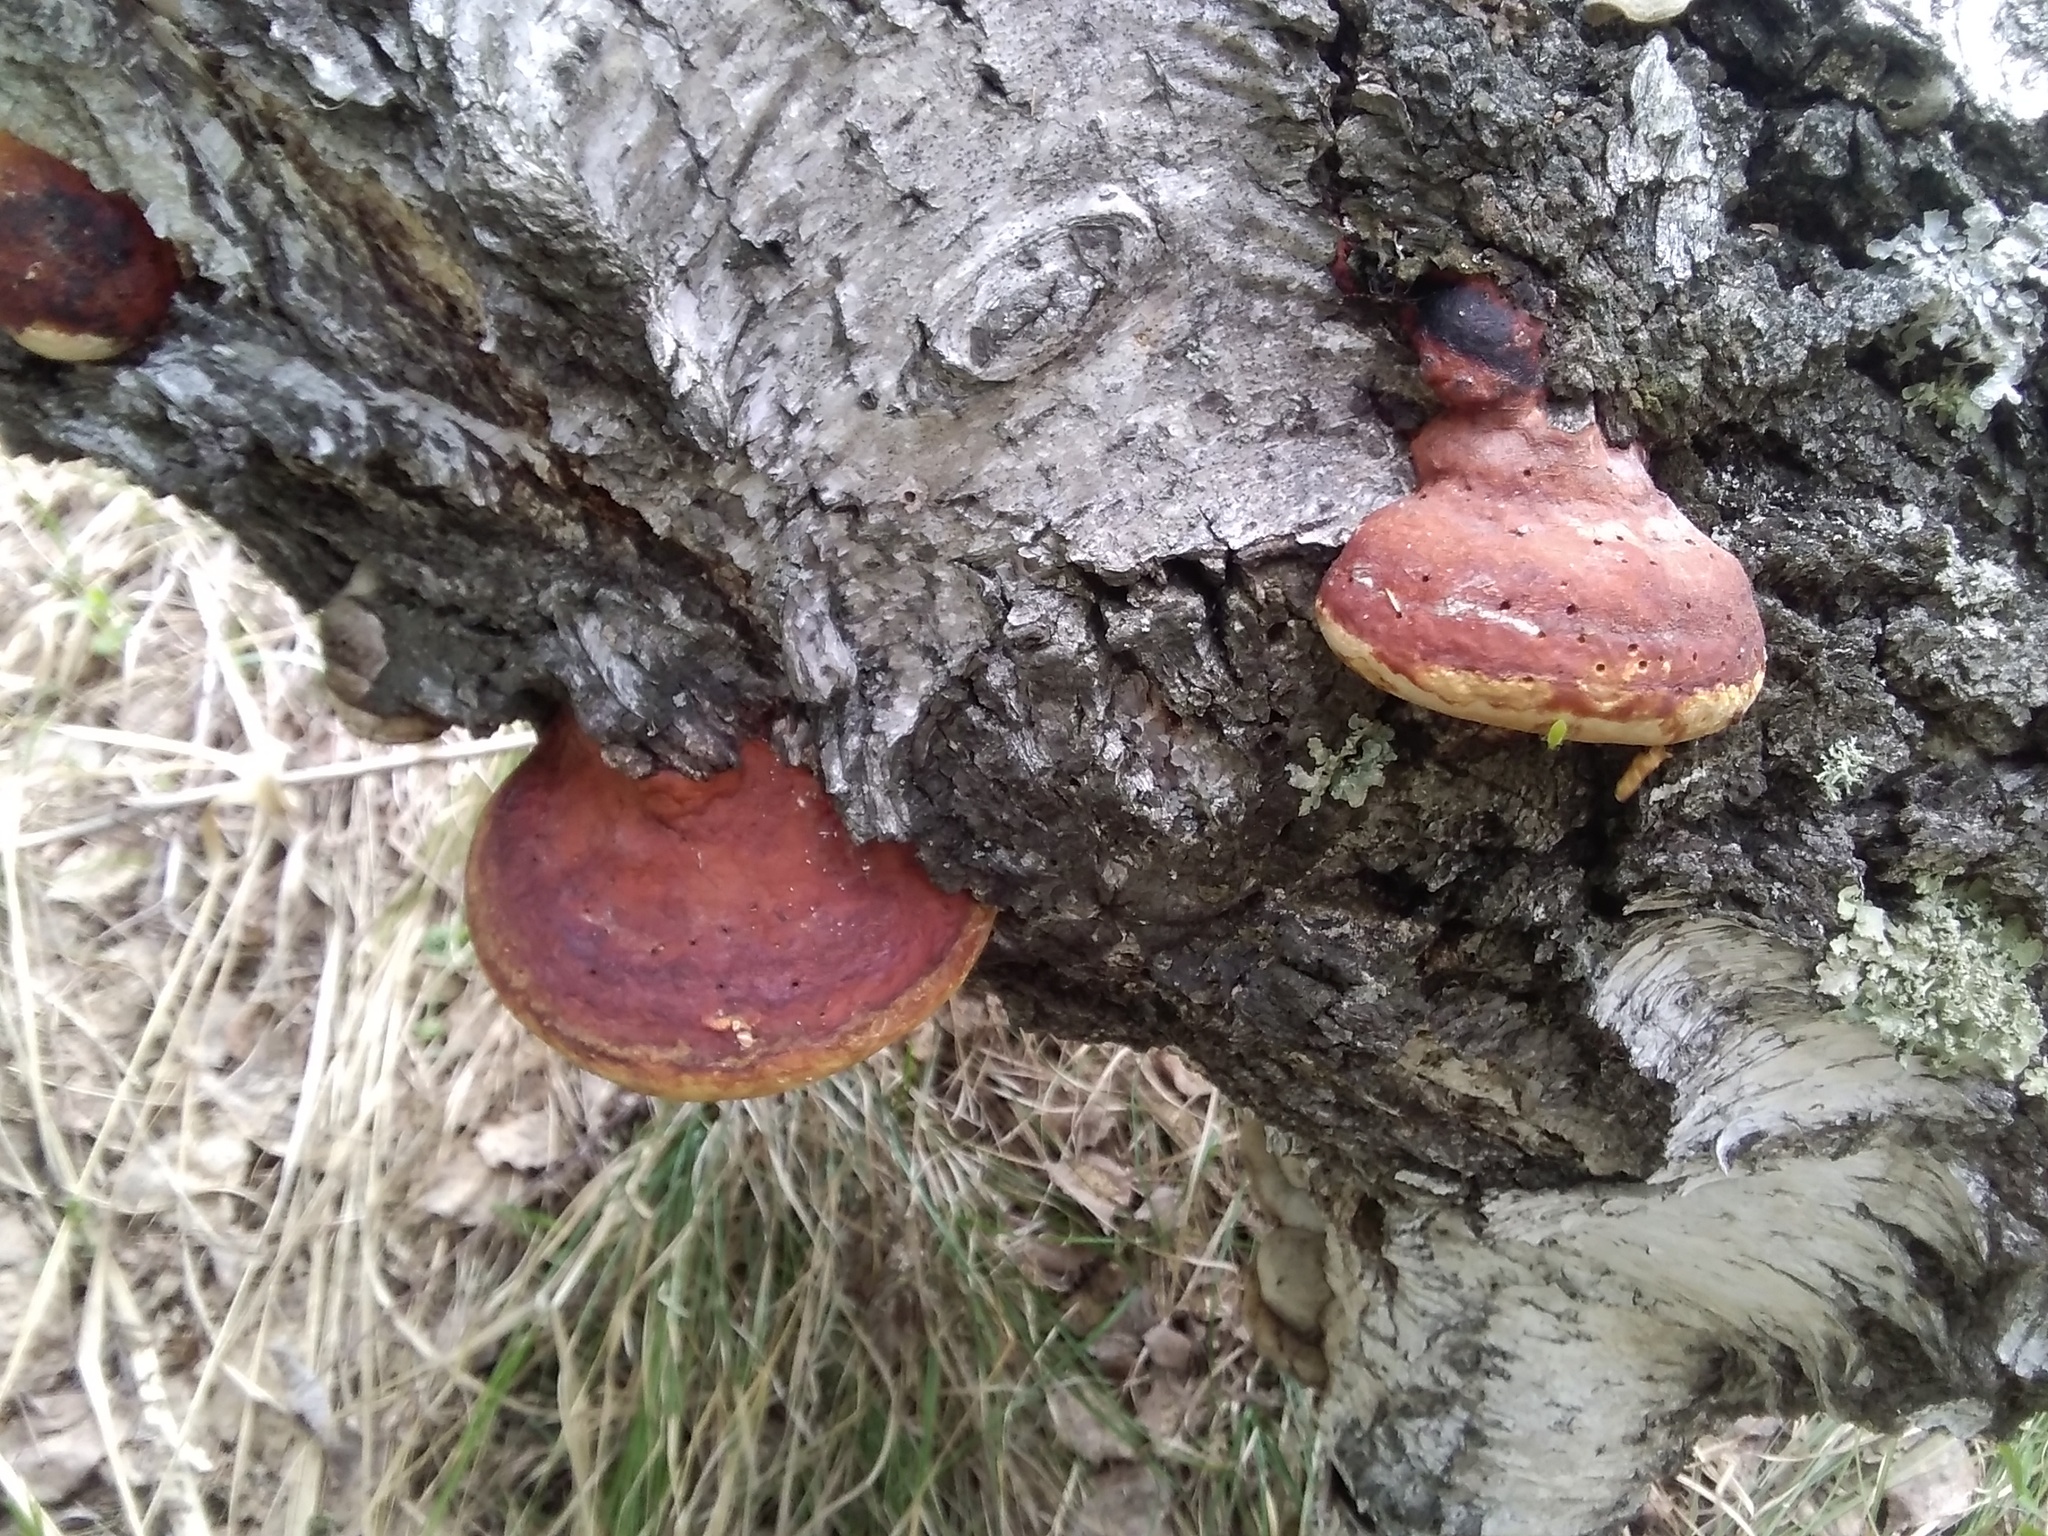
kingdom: Fungi
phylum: Basidiomycota
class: Agaricomycetes
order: Polyporales
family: Fomitopsidaceae
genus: Fomitopsis
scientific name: Fomitopsis pinicola
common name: Red-belted bracket
